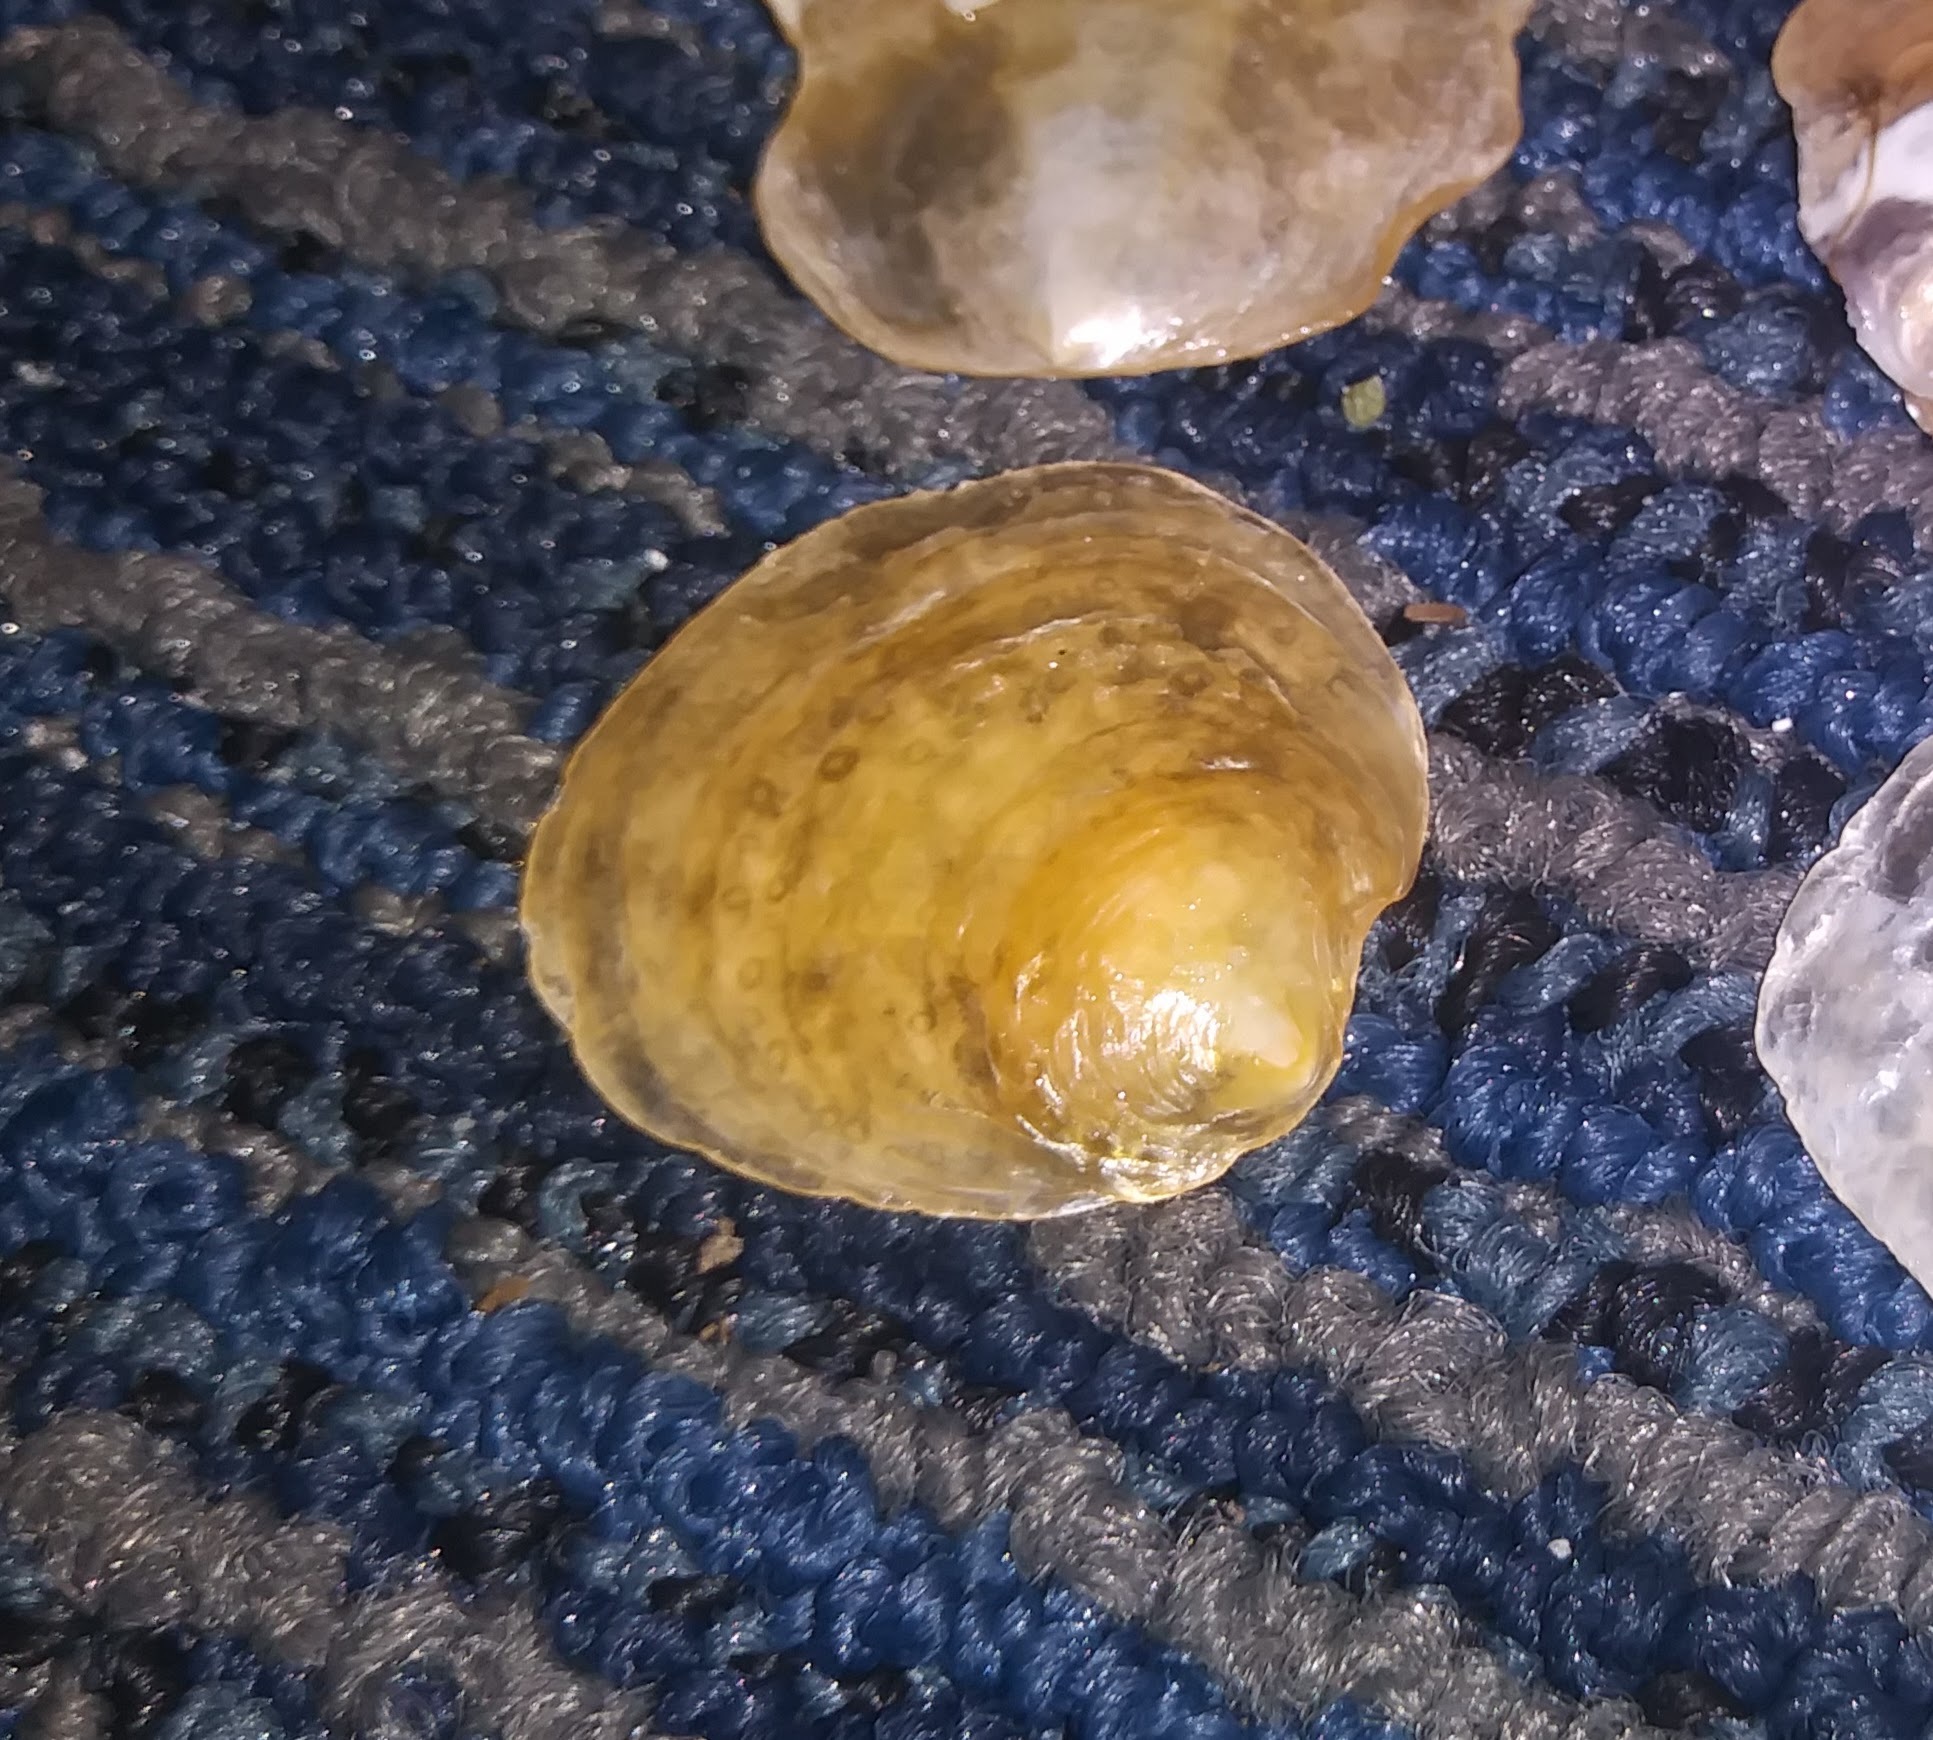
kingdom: Animalia
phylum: Mollusca
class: Bivalvia
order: Pectinida
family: Anomiidae
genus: Anomia
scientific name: Anomia simplex
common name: Common jingle shell
